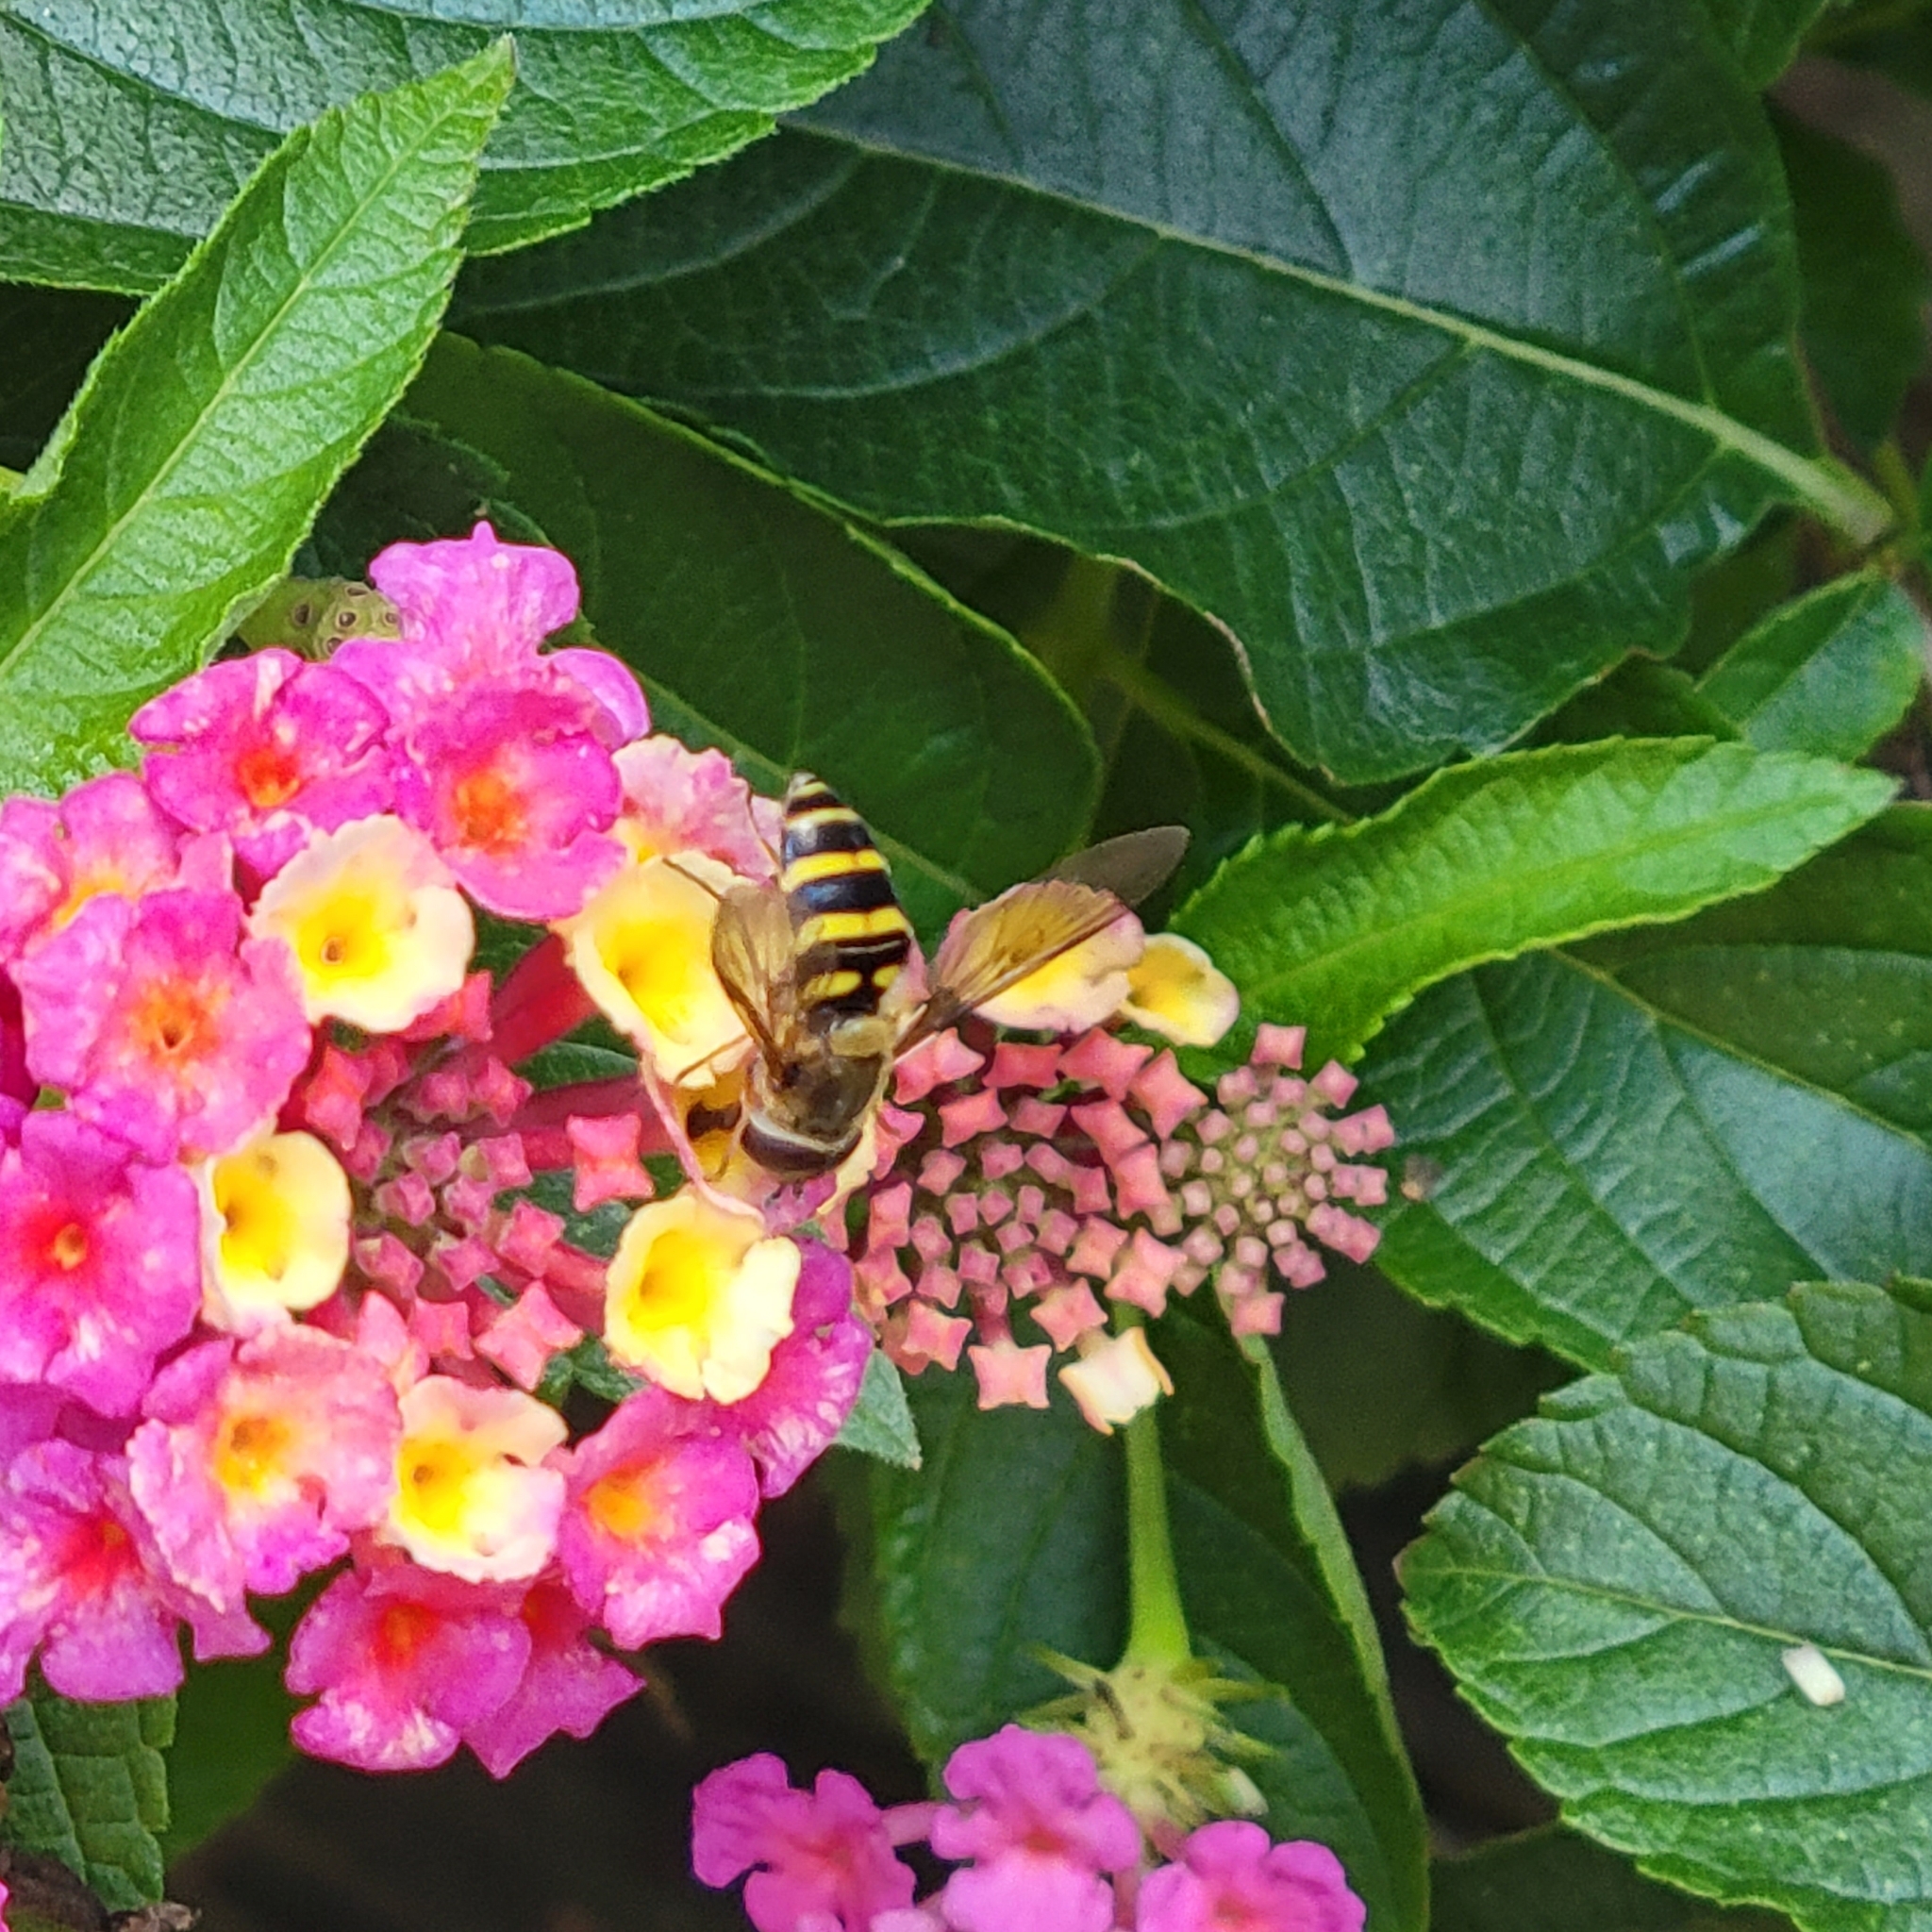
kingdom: Animalia
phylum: Arthropoda
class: Insecta
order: Diptera
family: Syrphidae
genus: Syrphus
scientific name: Syrphus
